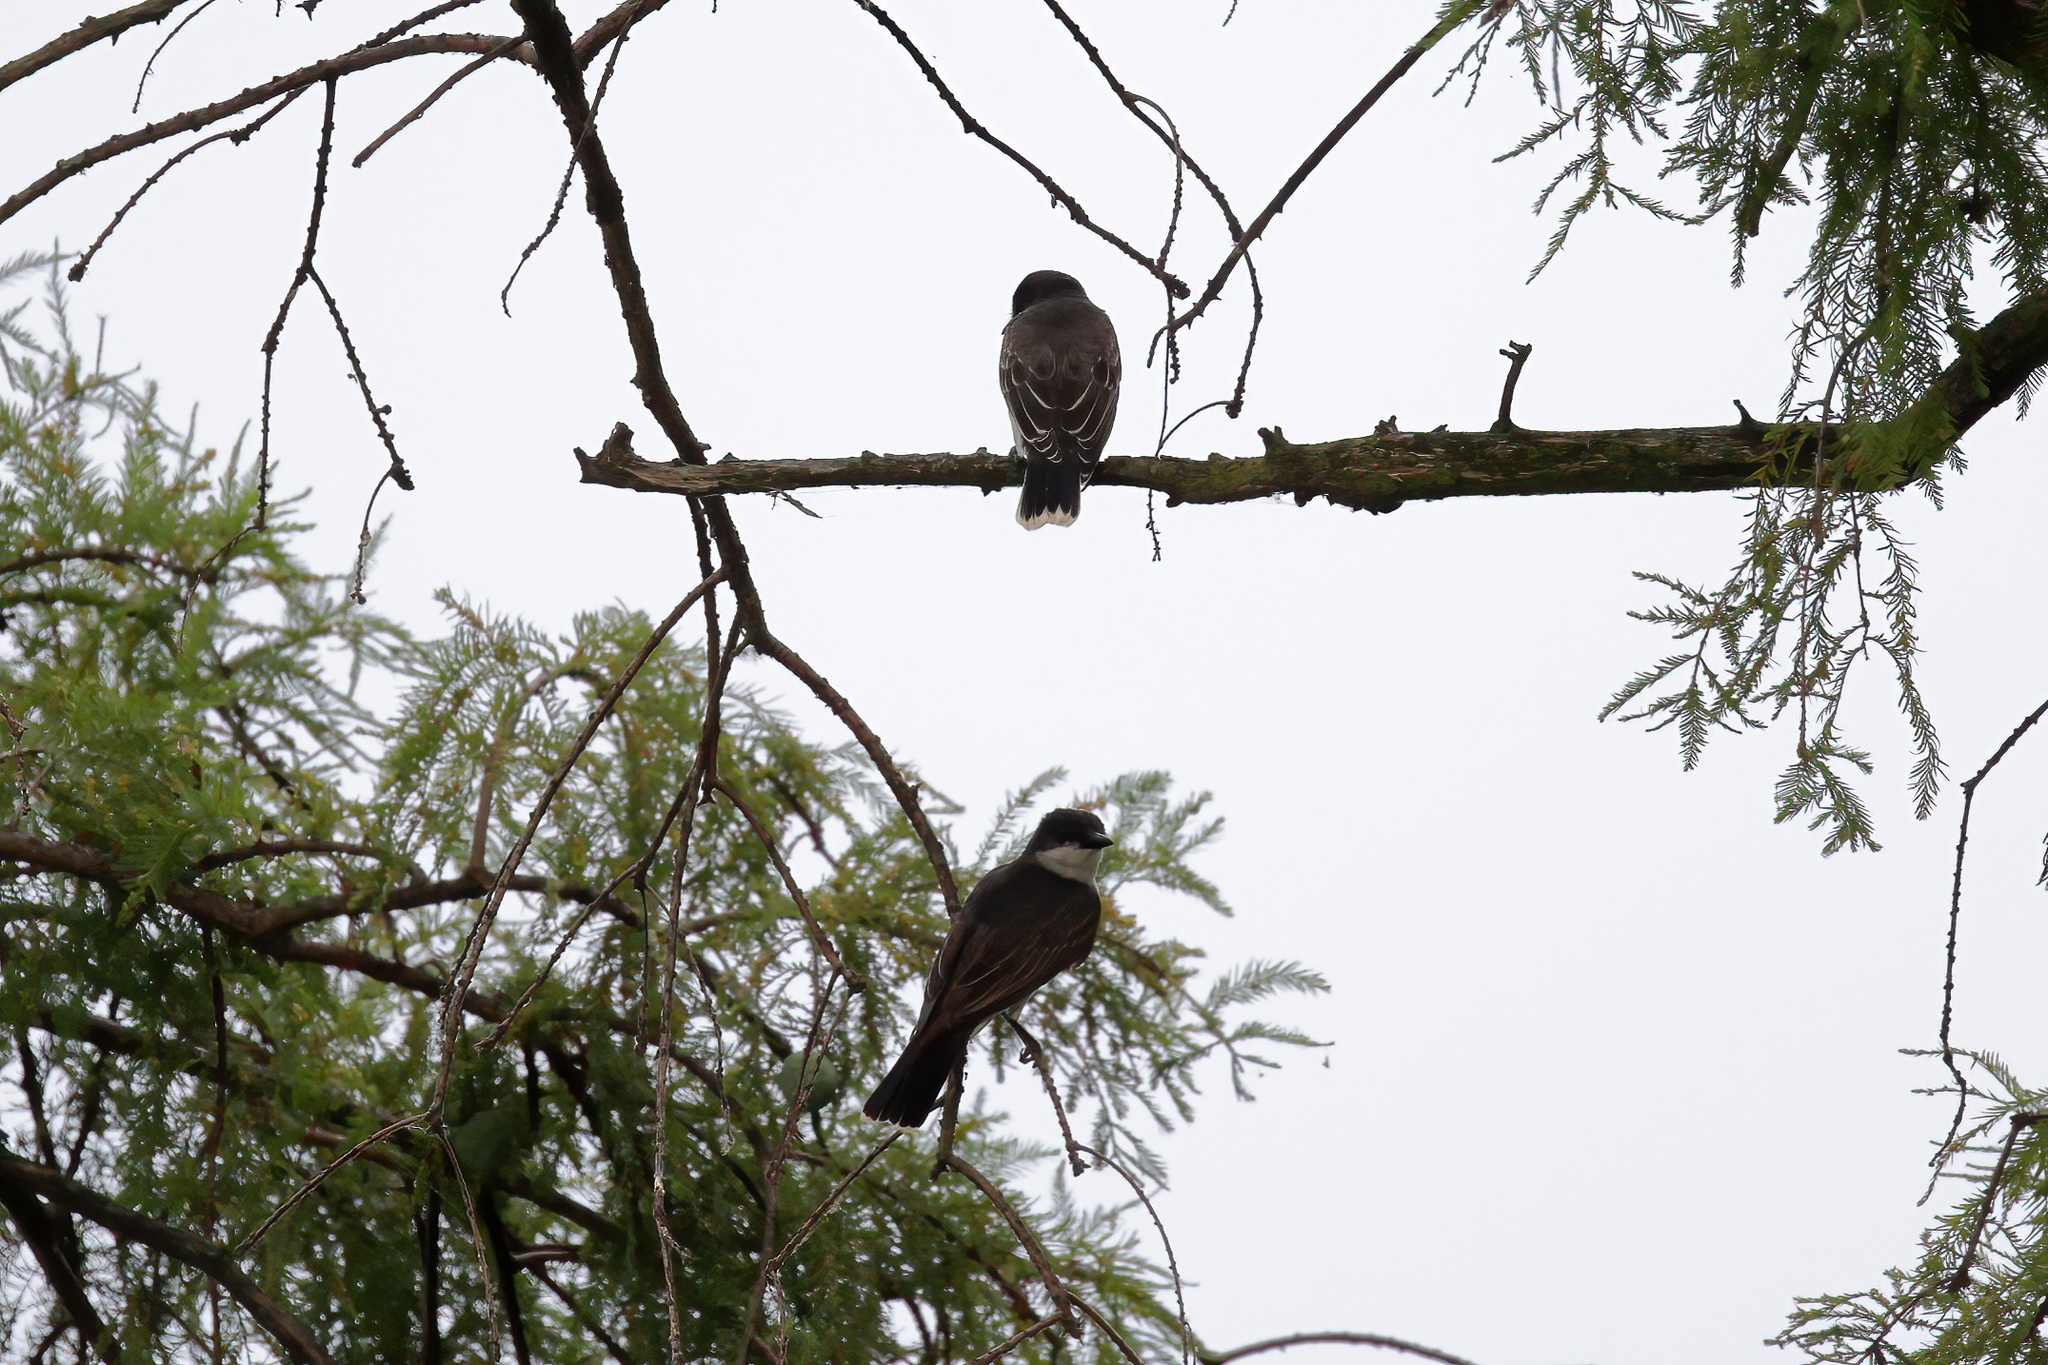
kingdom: Animalia
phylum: Chordata
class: Aves
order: Passeriformes
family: Tyrannidae
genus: Tyrannus
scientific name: Tyrannus tyrannus
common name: Eastern kingbird
